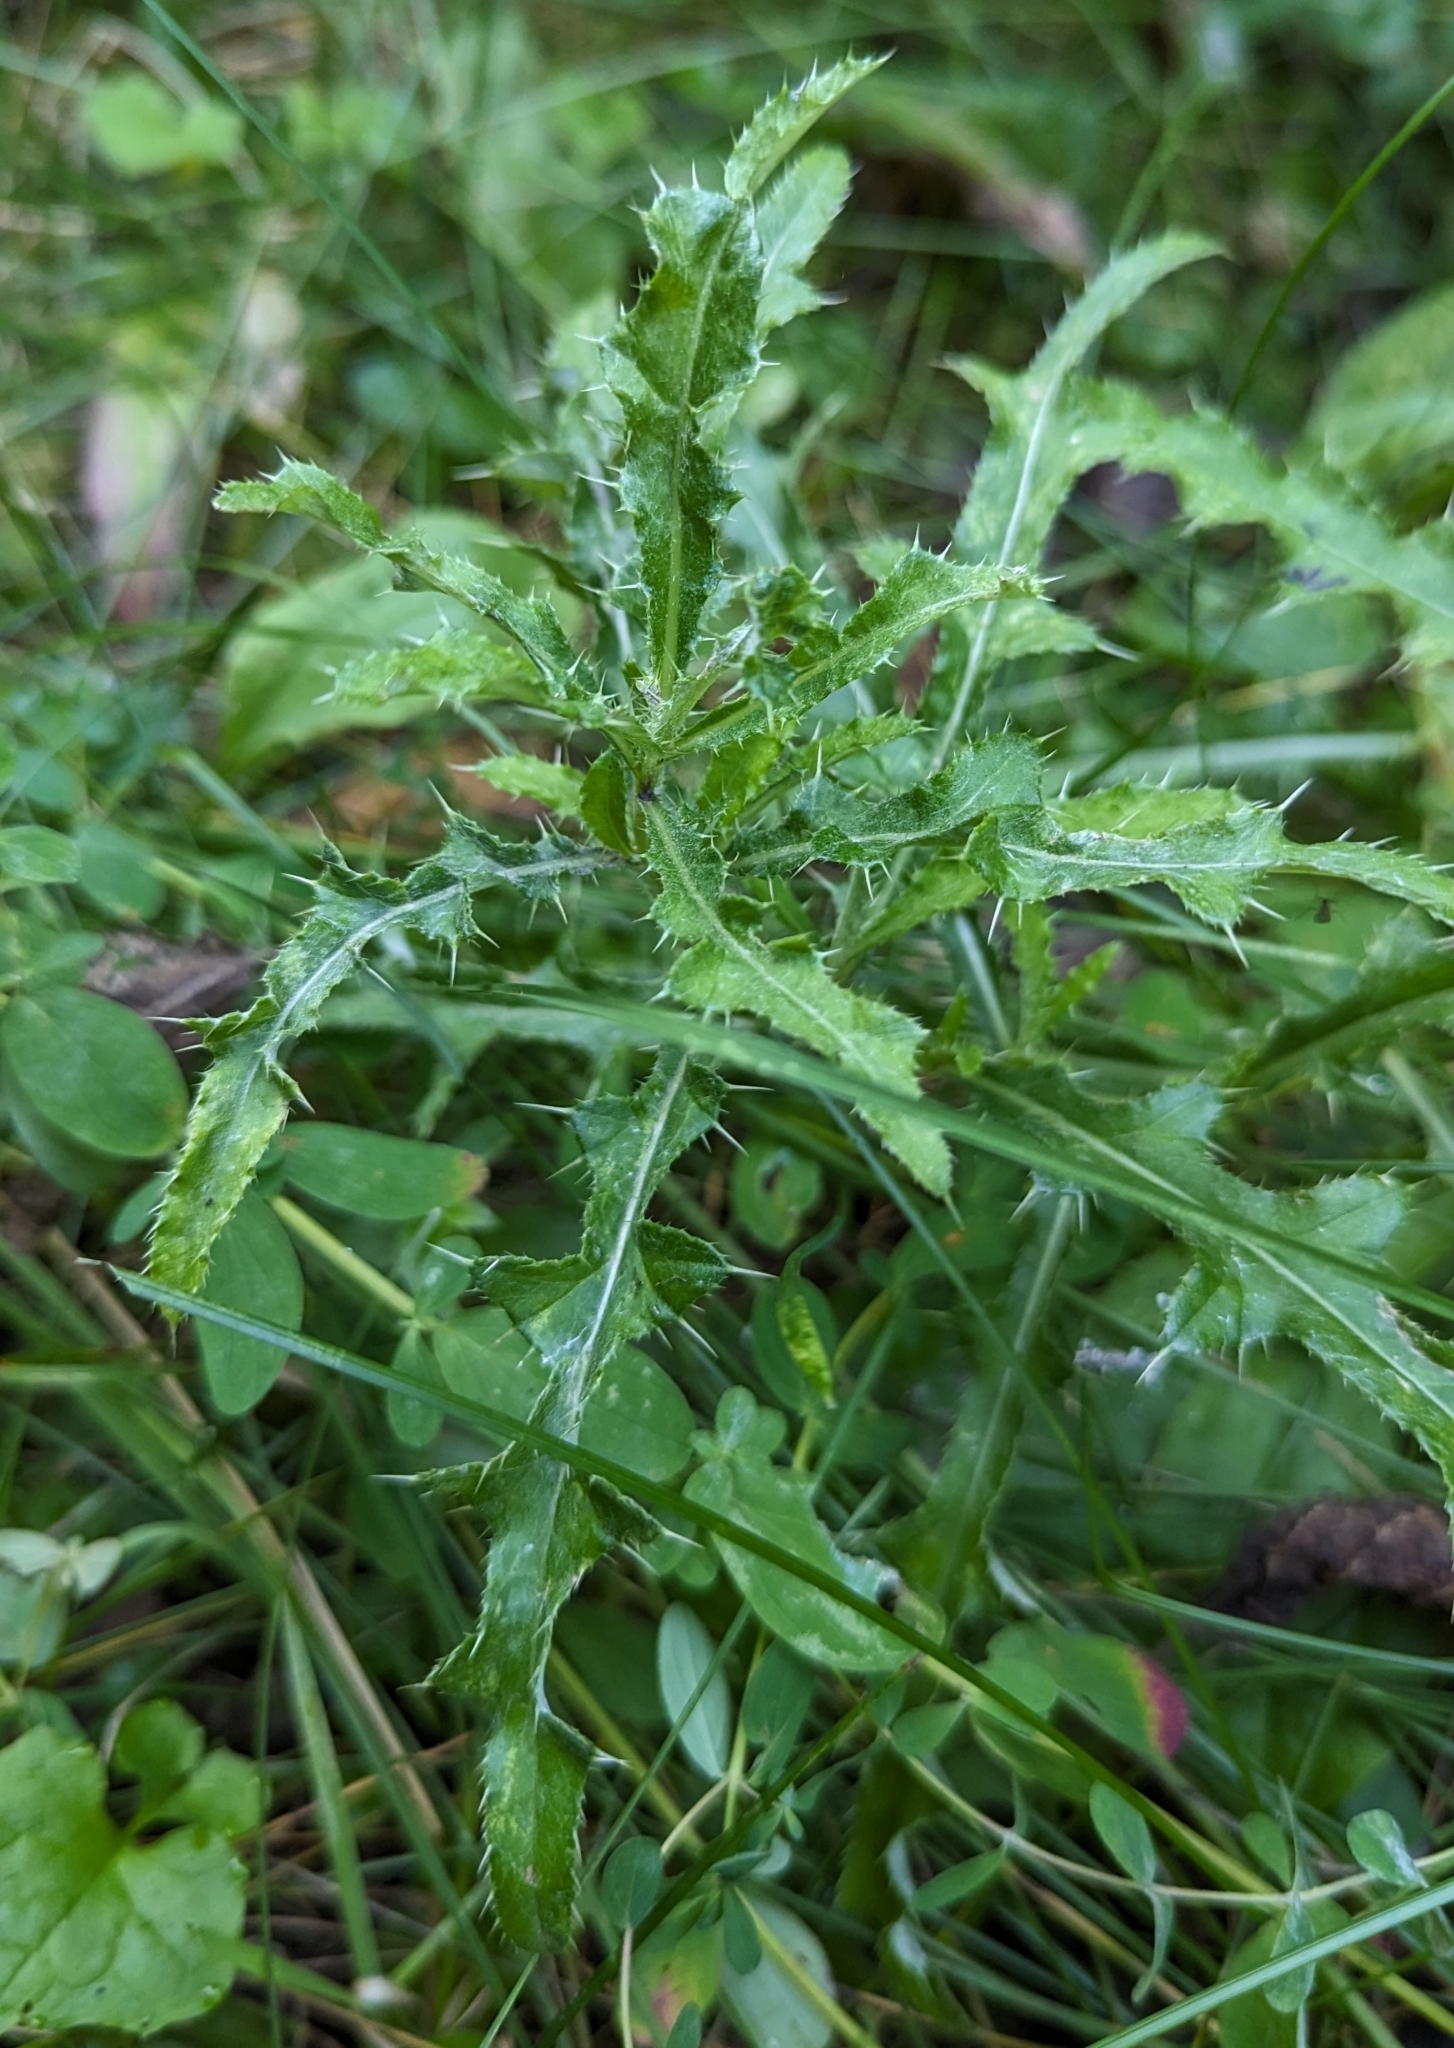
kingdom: Plantae
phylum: Tracheophyta
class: Magnoliopsida
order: Asterales
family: Asteraceae
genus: Cirsium
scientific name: Cirsium arvense
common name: Creeping thistle
